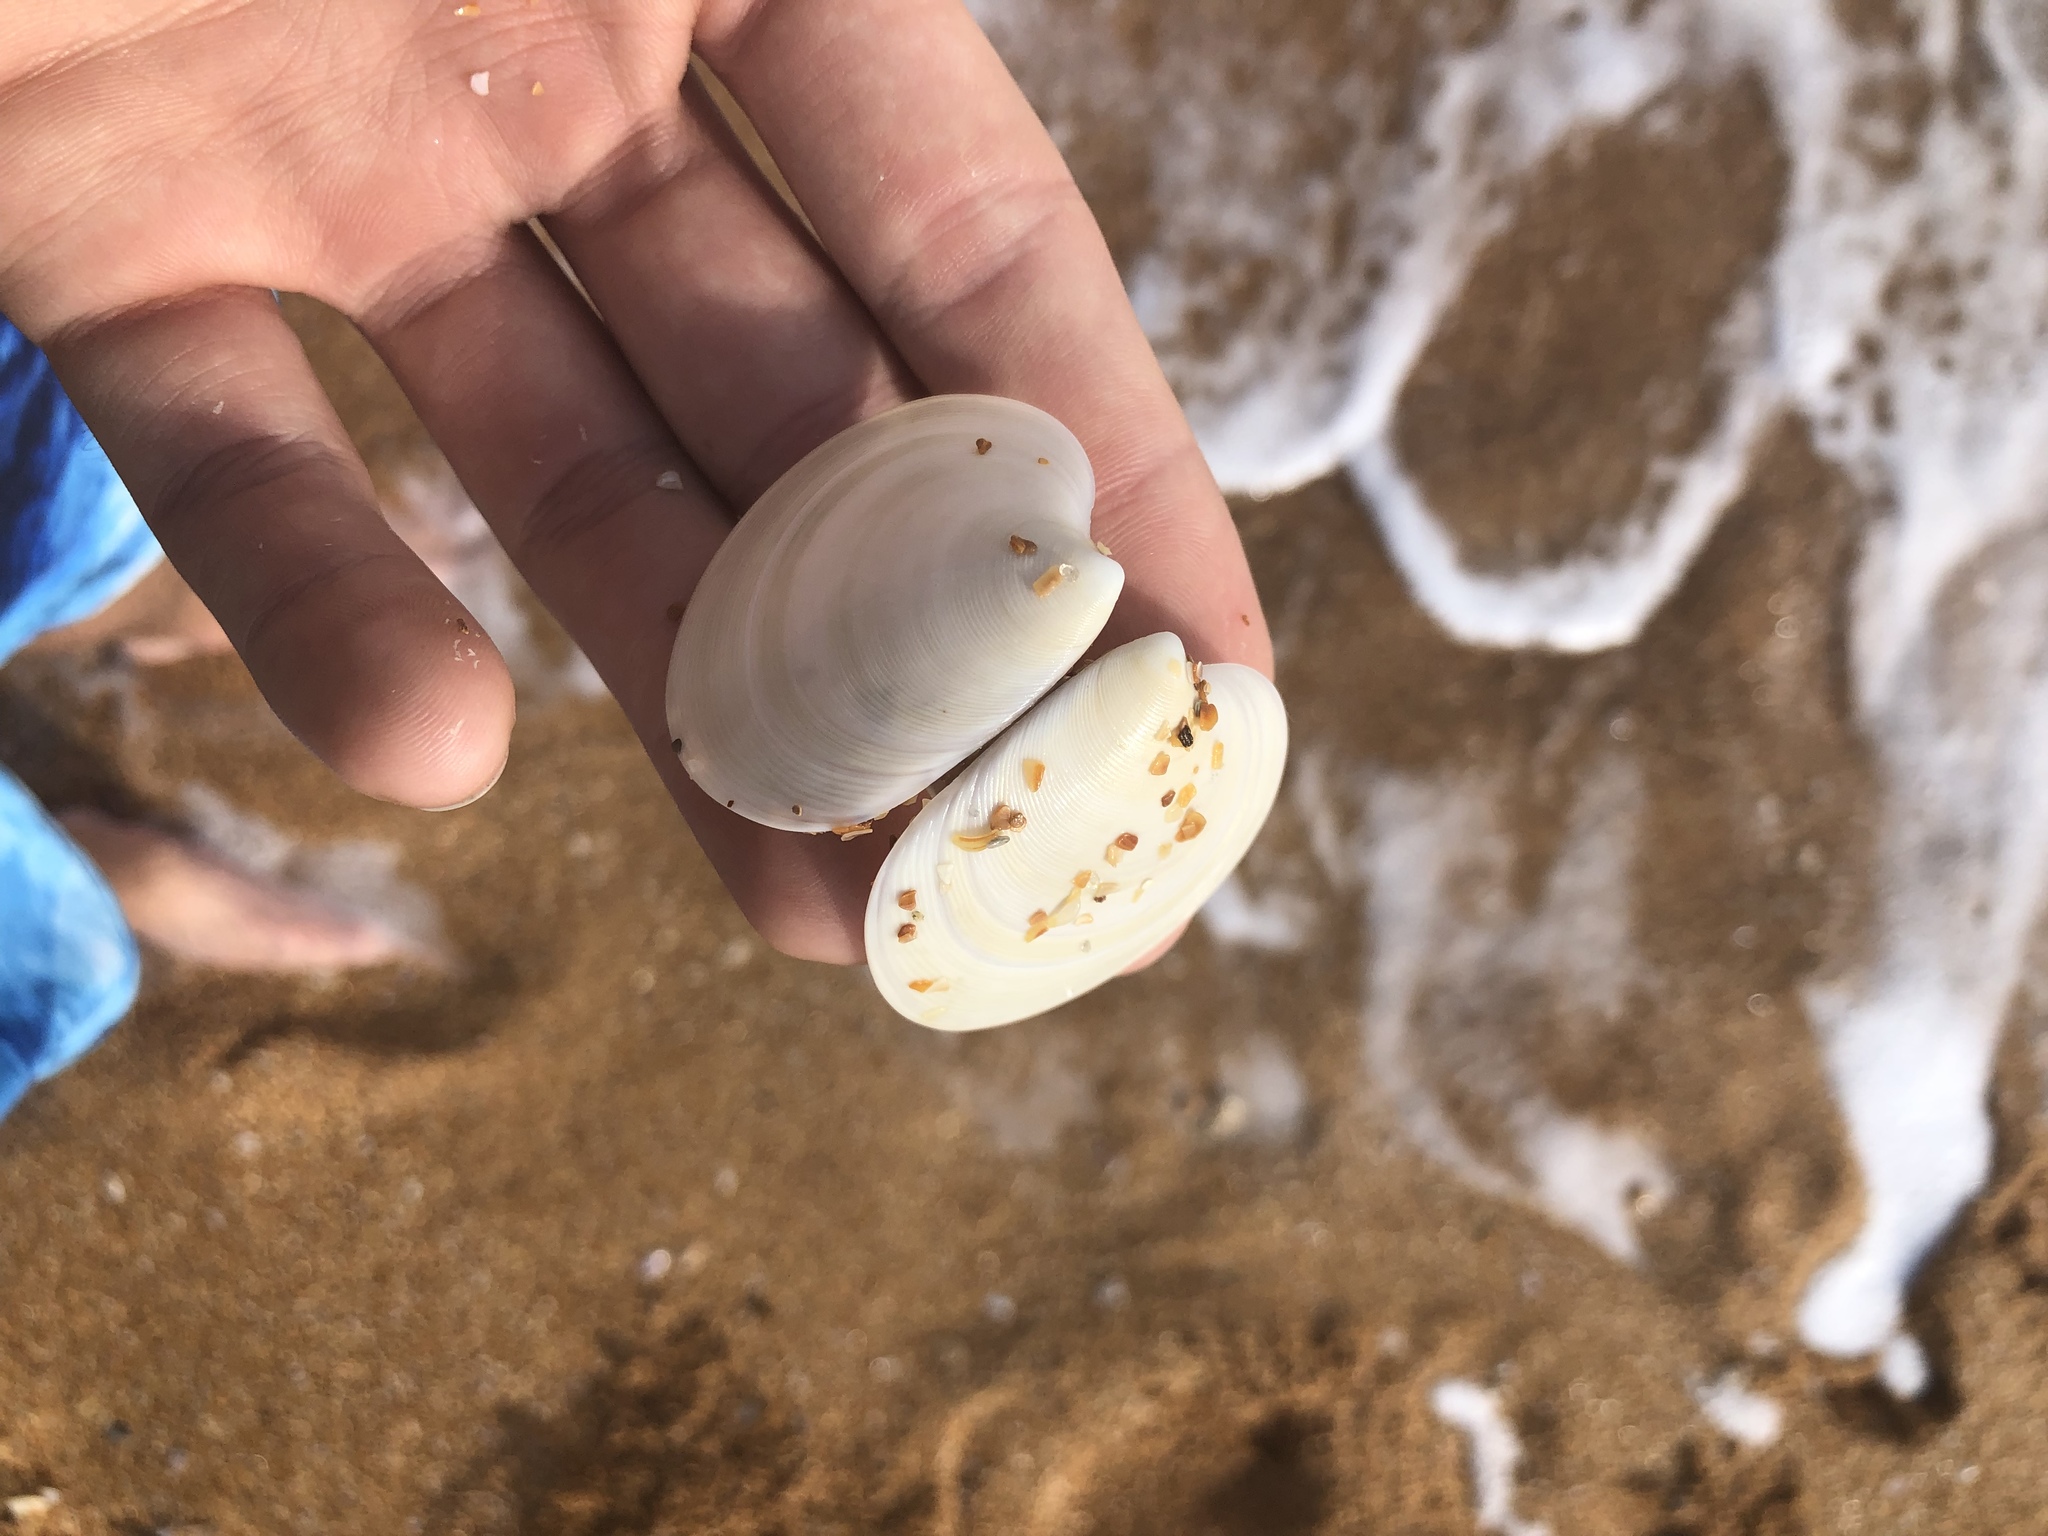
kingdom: Animalia
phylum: Mollusca
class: Bivalvia
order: Venerida
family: Veneridae
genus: Dosinia
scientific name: Dosinia discus
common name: Disk dosinia
